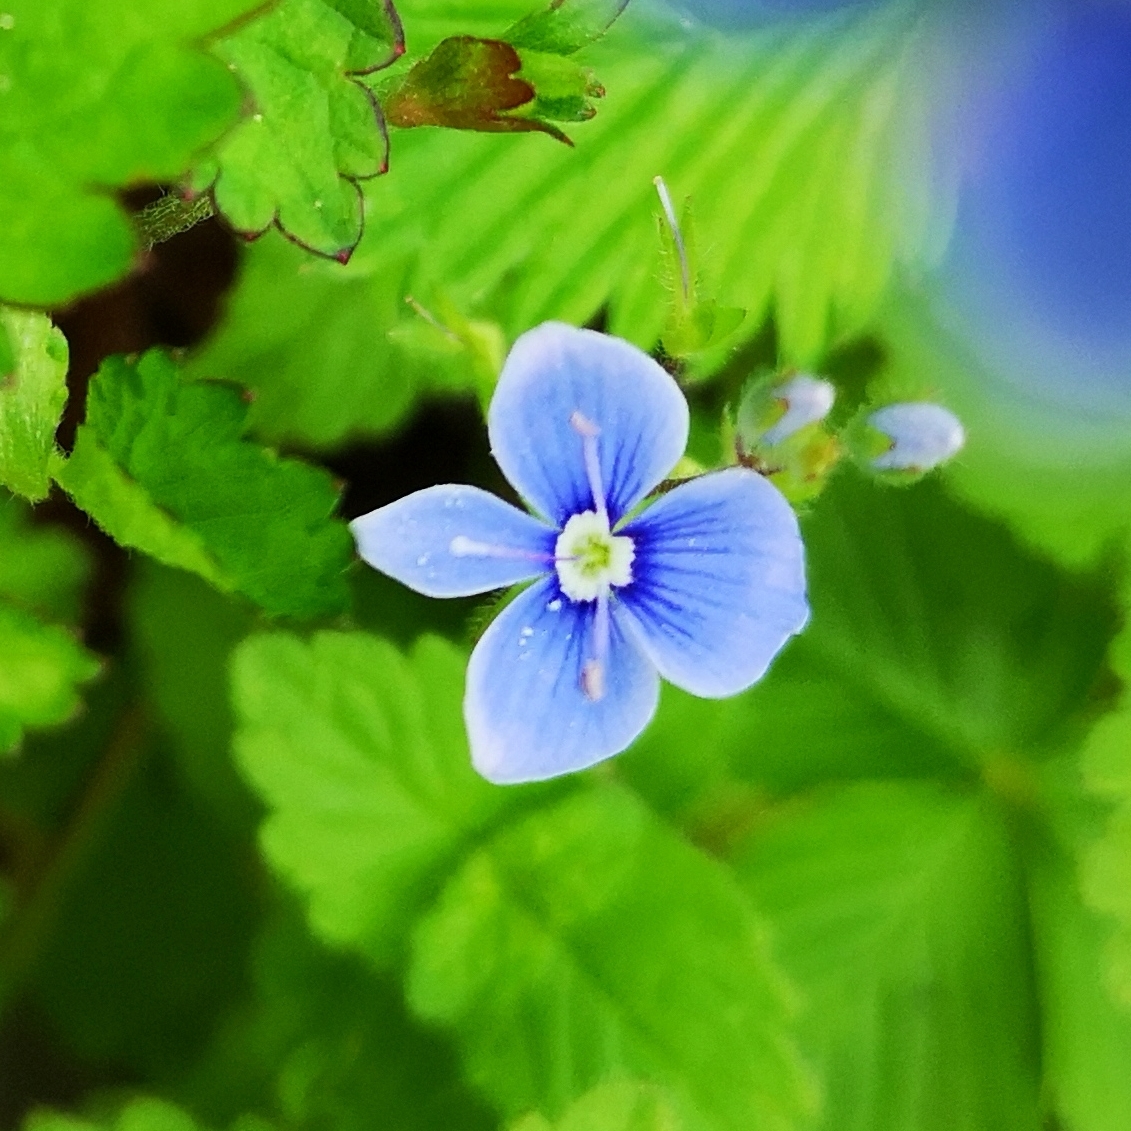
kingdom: Plantae
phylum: Tracheophyta
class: Magnoliopsida
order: Lamiales
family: Plantaginaceae
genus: Veronica
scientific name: Veronica chamaedrys
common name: Germander speedwell
